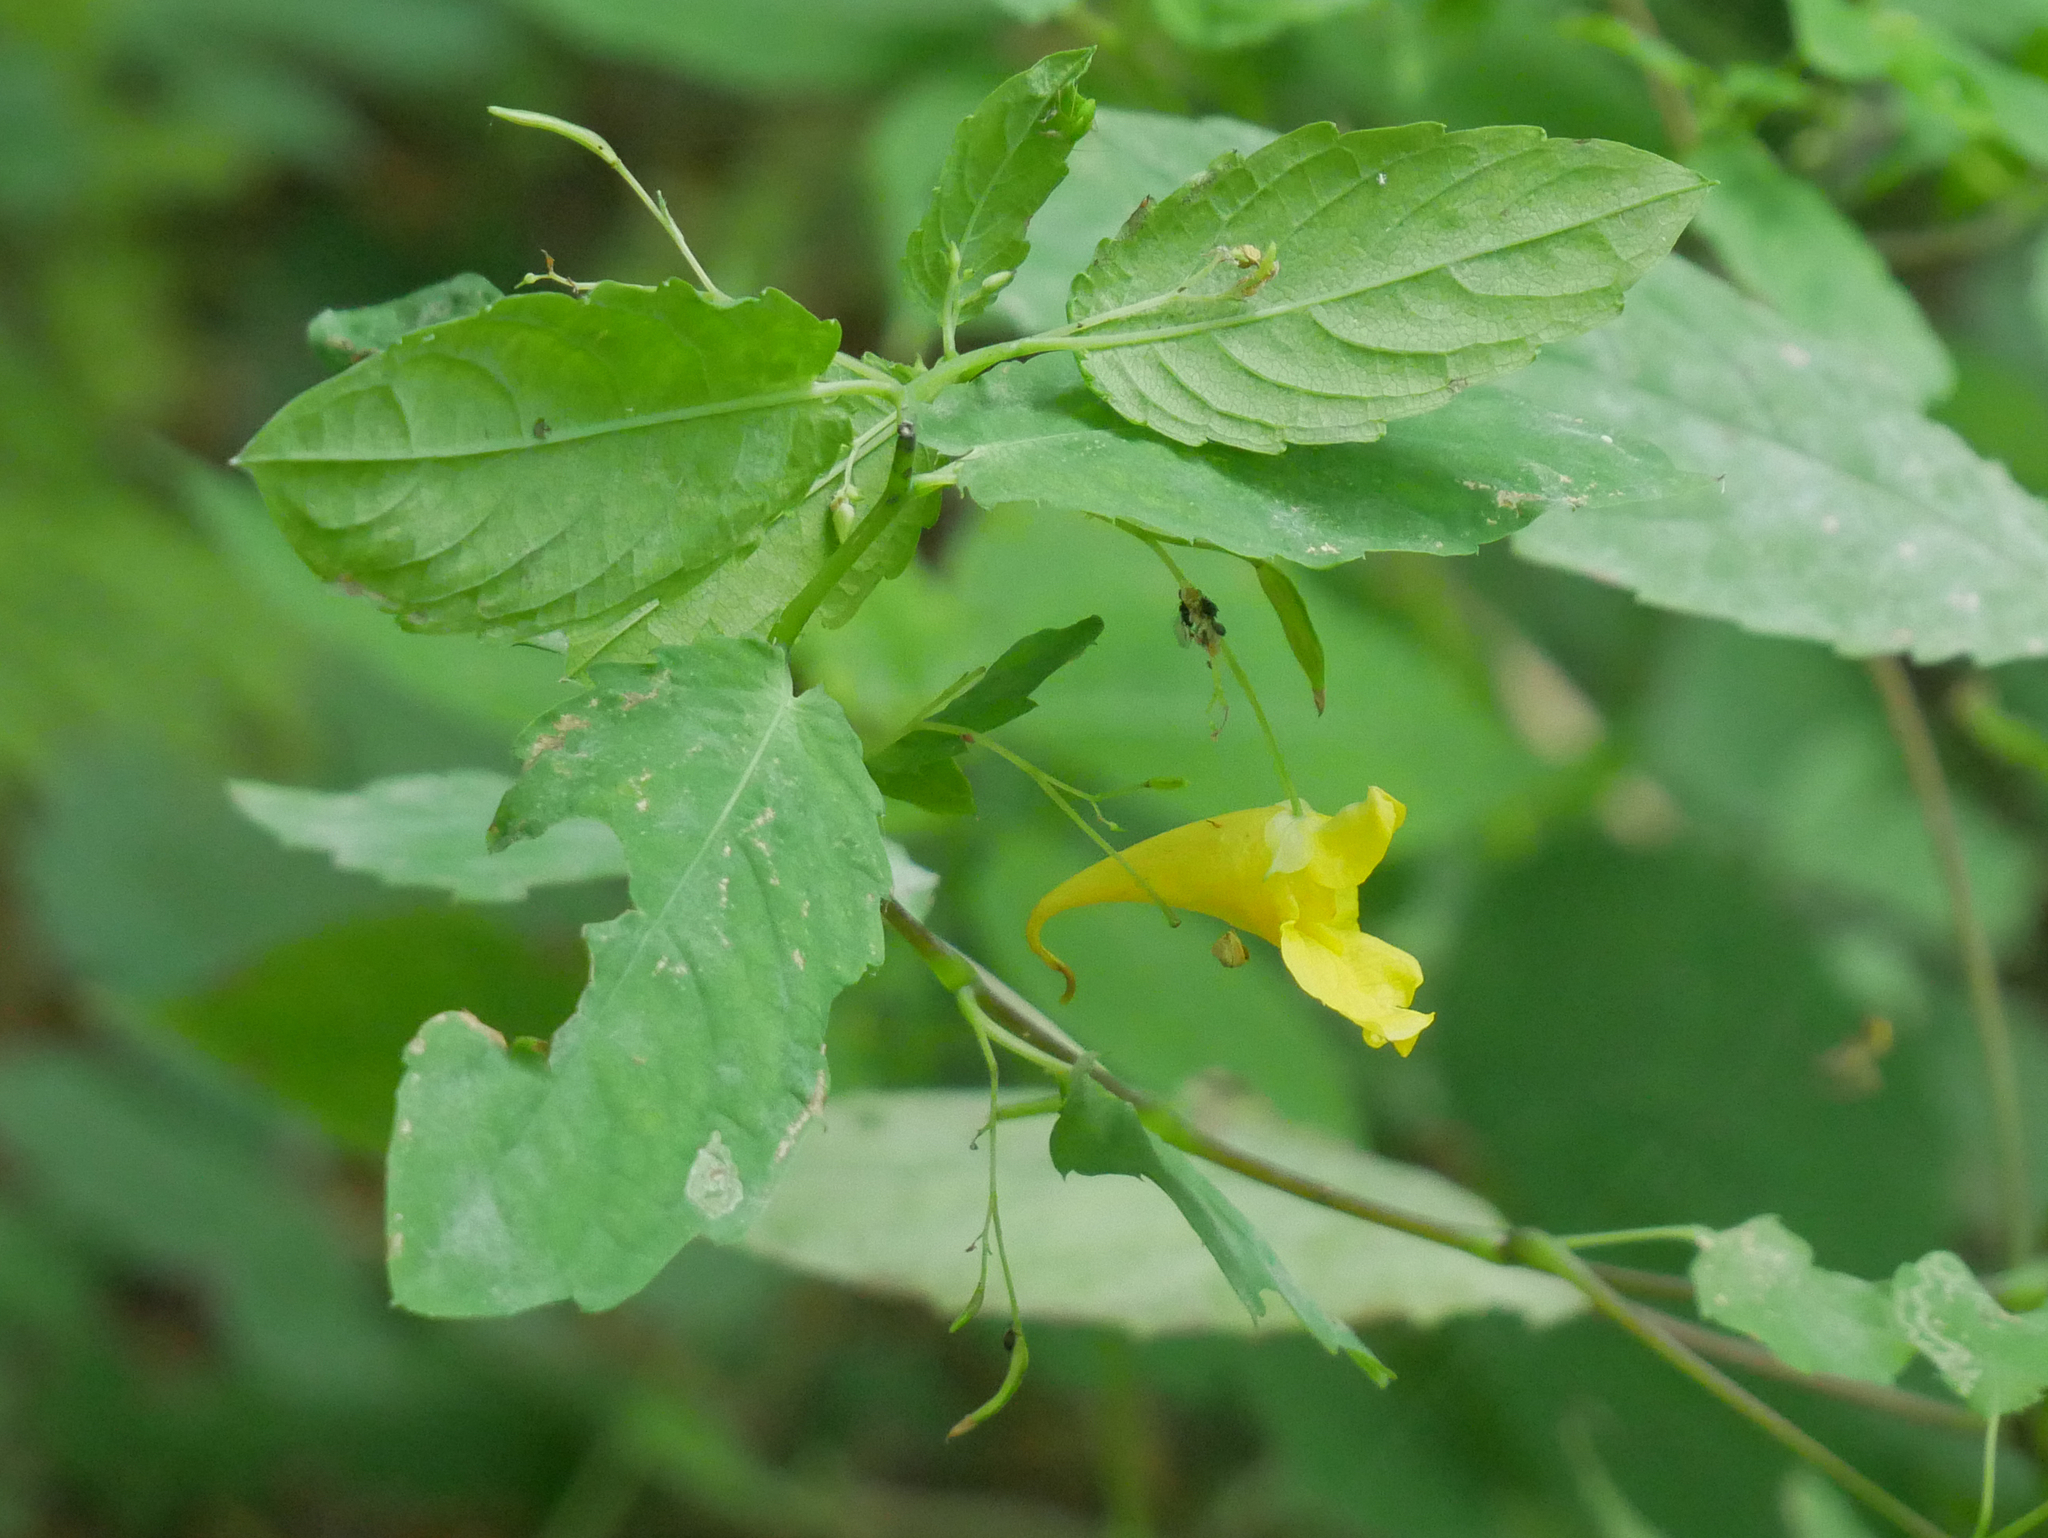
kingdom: Plantae
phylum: Tracheophyta
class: Magnoliopsida
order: Ericales
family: Balsaminaceae
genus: Impatiens
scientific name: Impatiens noli-tangere
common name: Touch-me-not balsam
